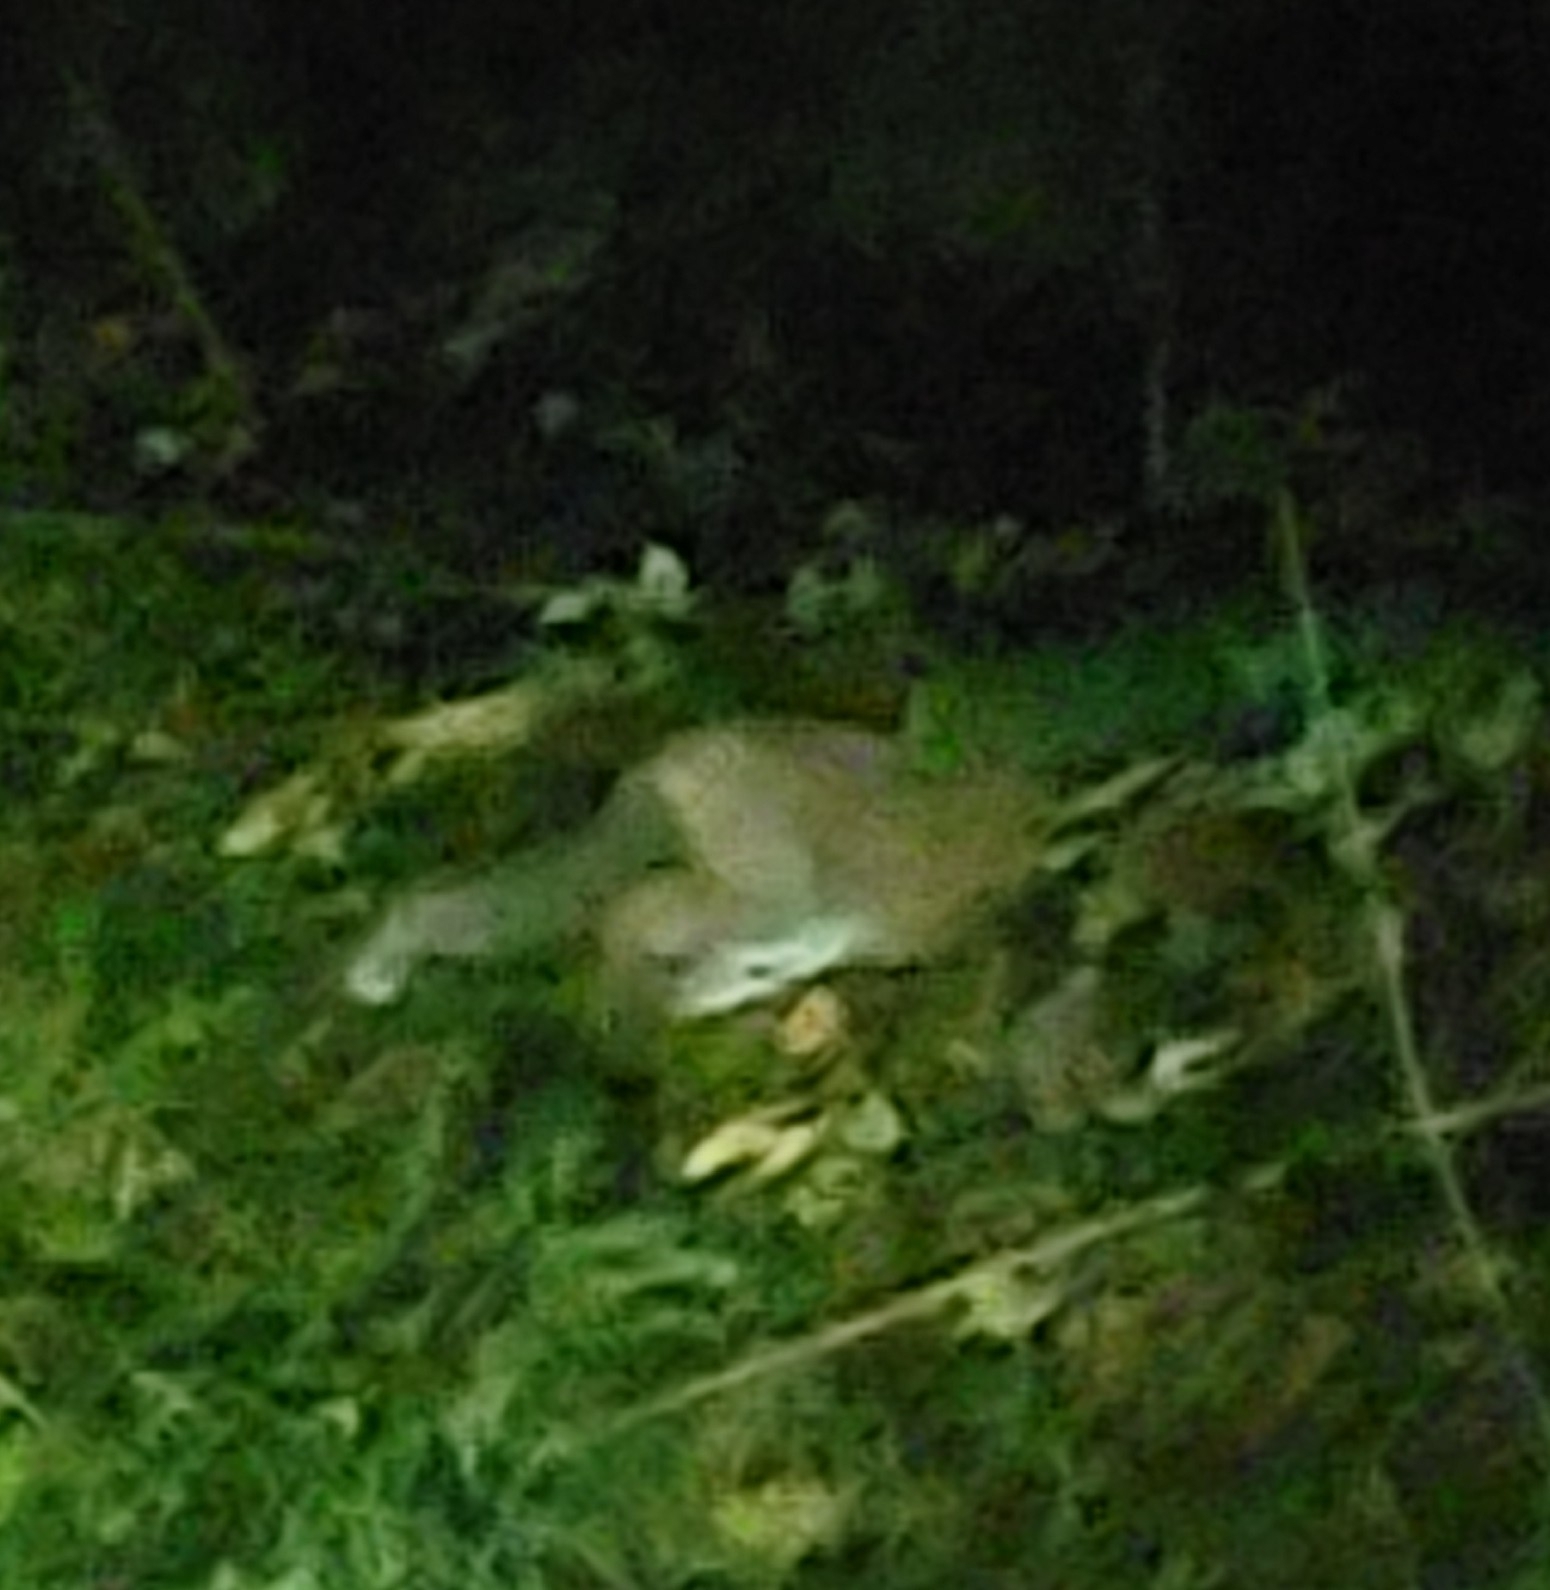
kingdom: Animalia
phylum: Chordata
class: Mammalia
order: Carnivora
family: Canidae
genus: Vulpes
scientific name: Vulpes vulpes
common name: Red fox
